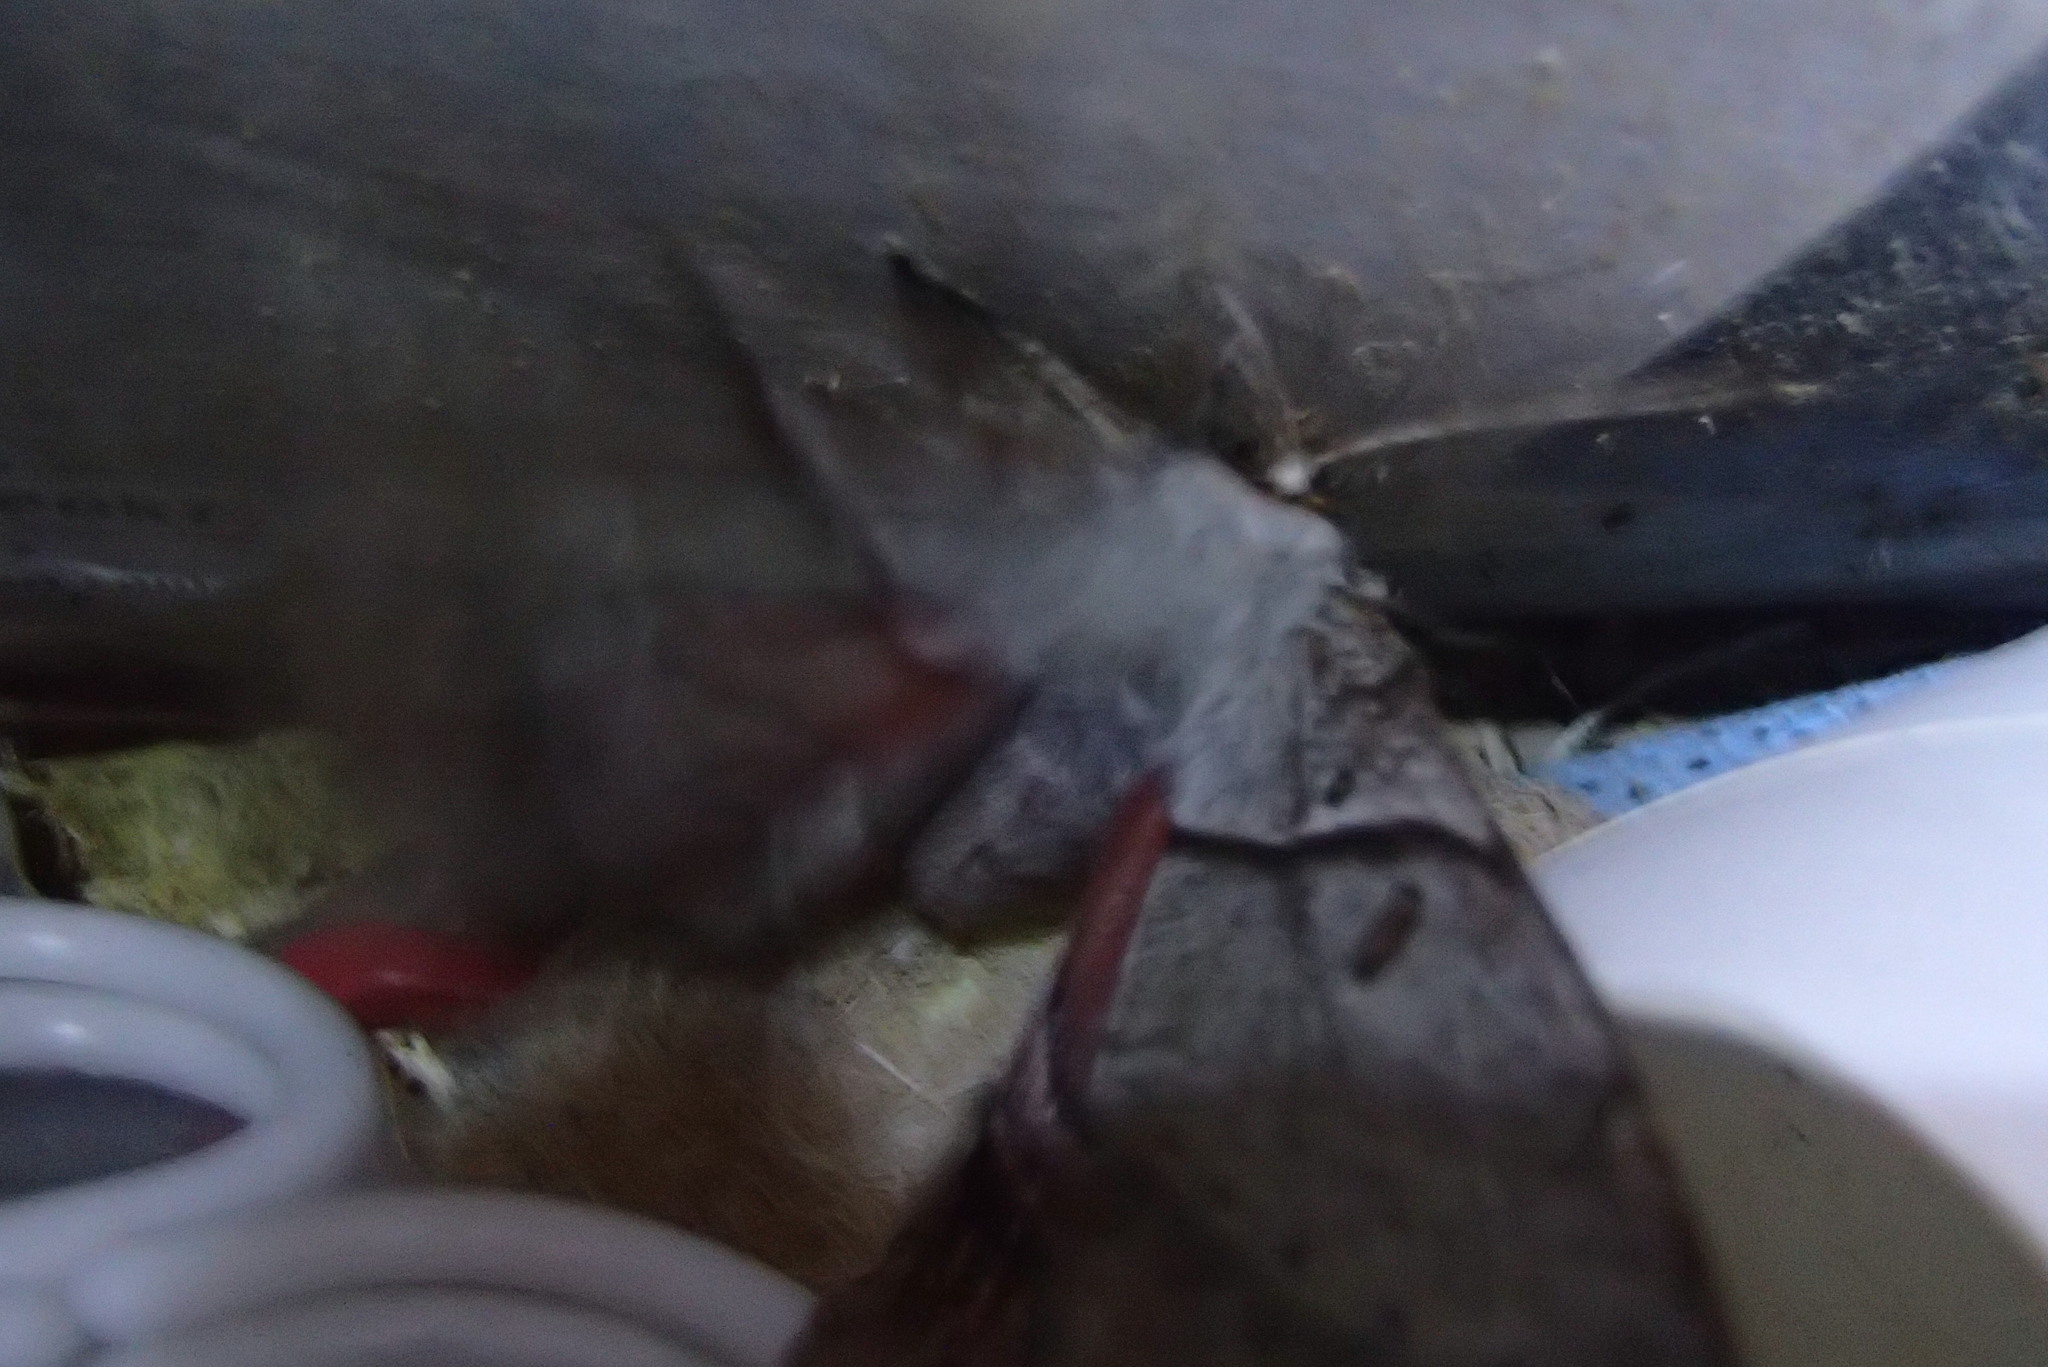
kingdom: Animalia
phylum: Arthropoda
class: Insecta
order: Lepidoptera
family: Anthelidae
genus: Chelepteryx
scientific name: Chelepteryx chalepteryx
